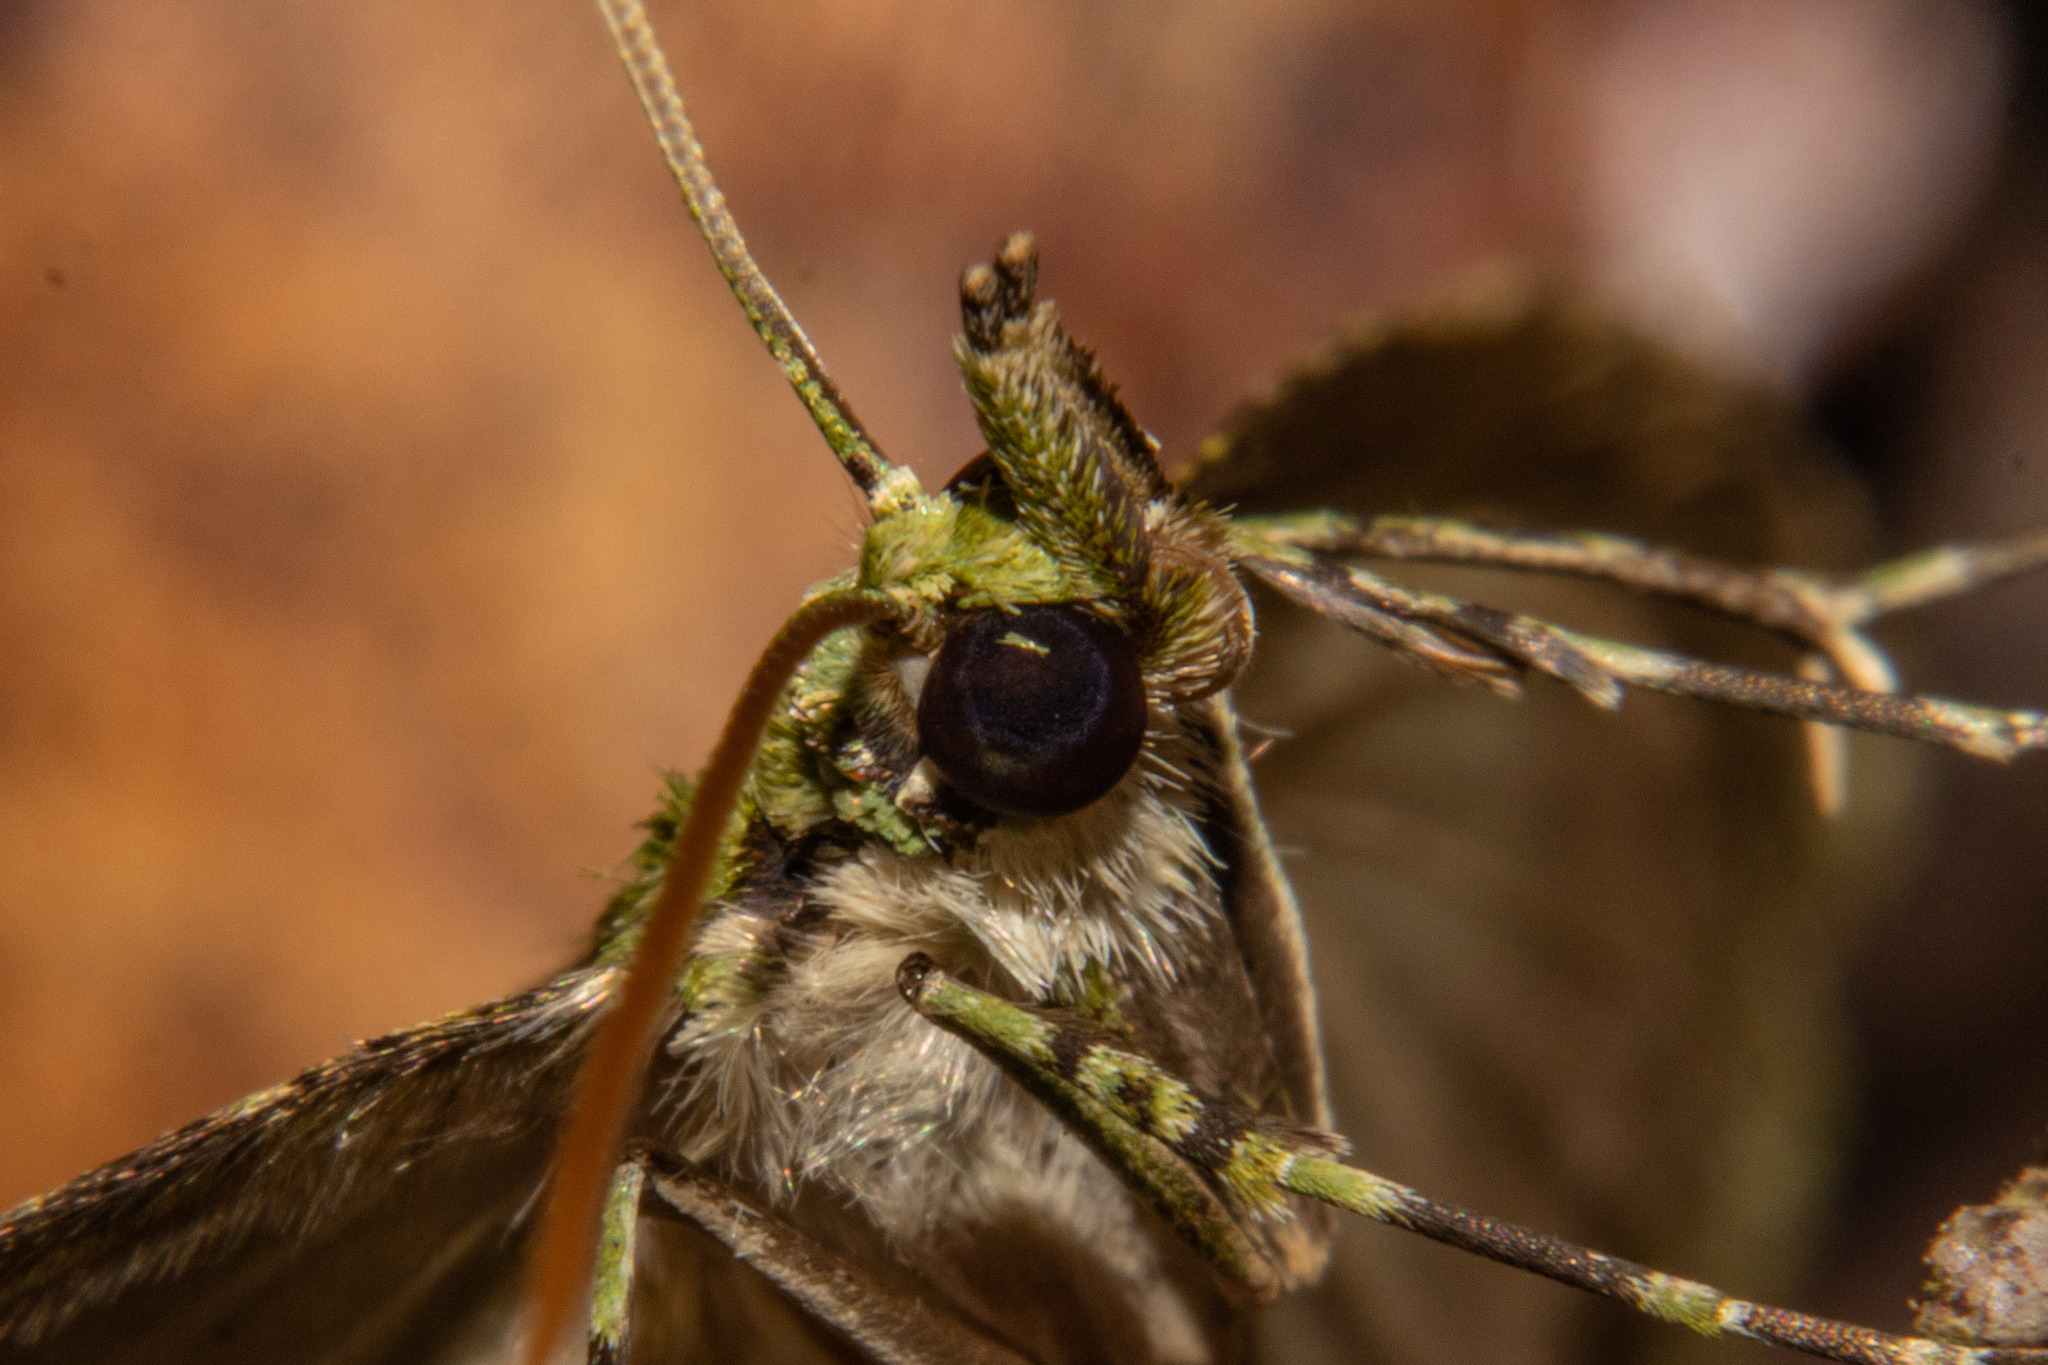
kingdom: Animalia
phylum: Arthropoda
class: Insecta
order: Lepidoptera
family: Geometridae
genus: Tatosoma
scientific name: Tatosoma tipulata
